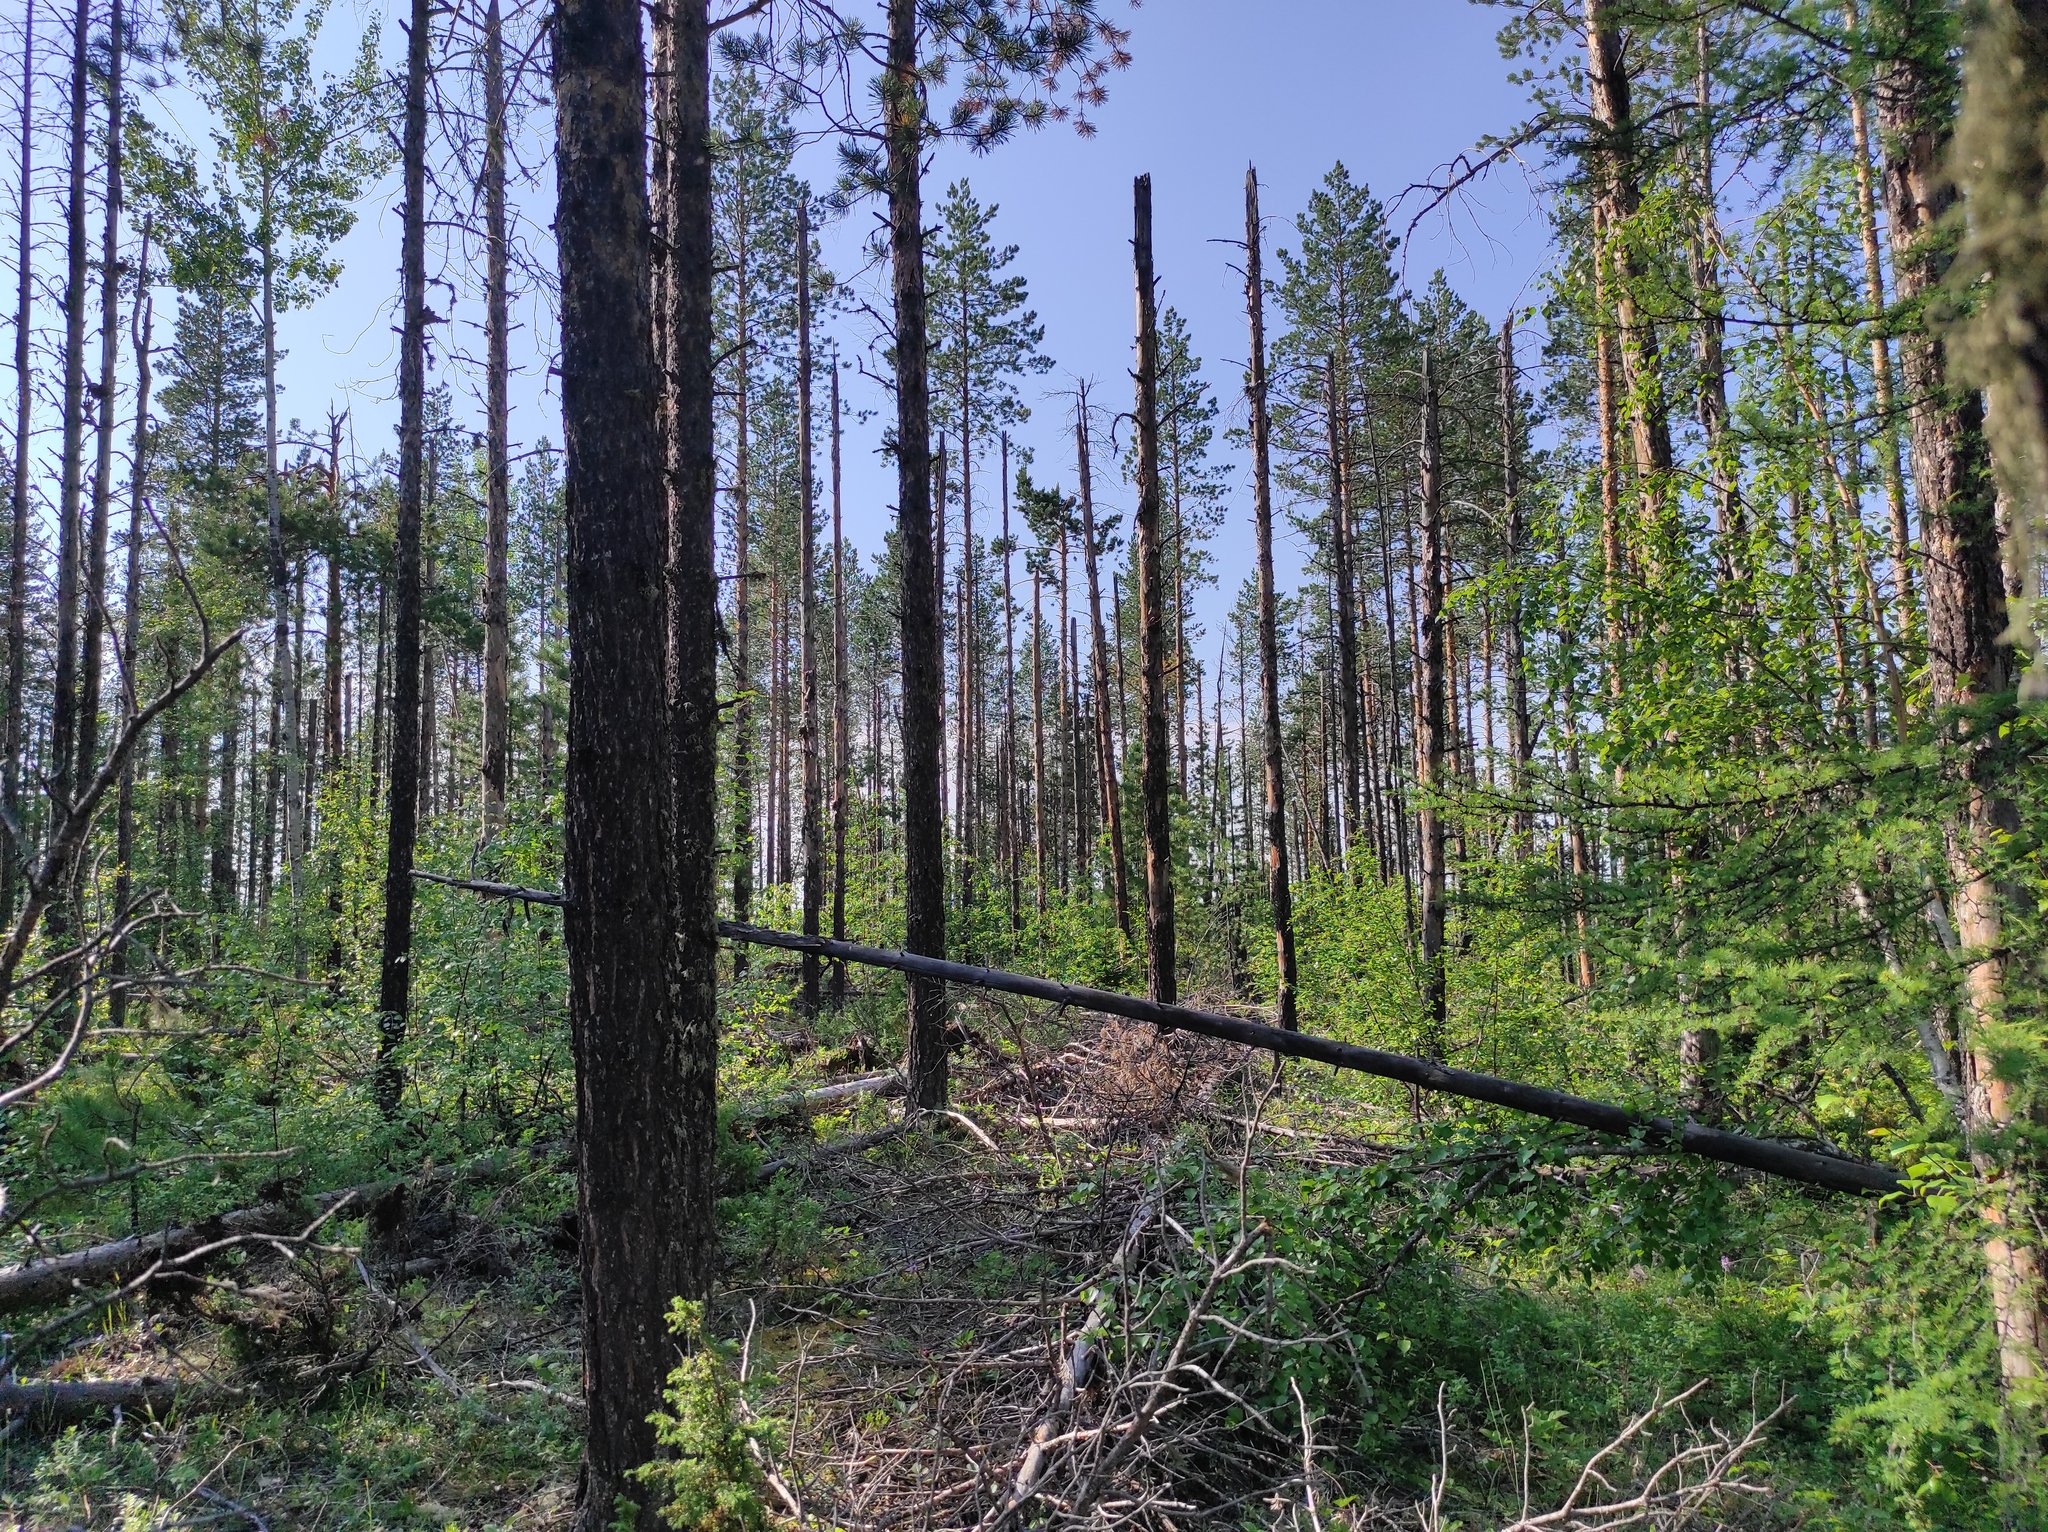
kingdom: Plantae
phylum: Tracheophyta
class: Pinopsida
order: Pinales
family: Pinaceae
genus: Pinus
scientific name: Pinus sylvestris
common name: Scots pine
